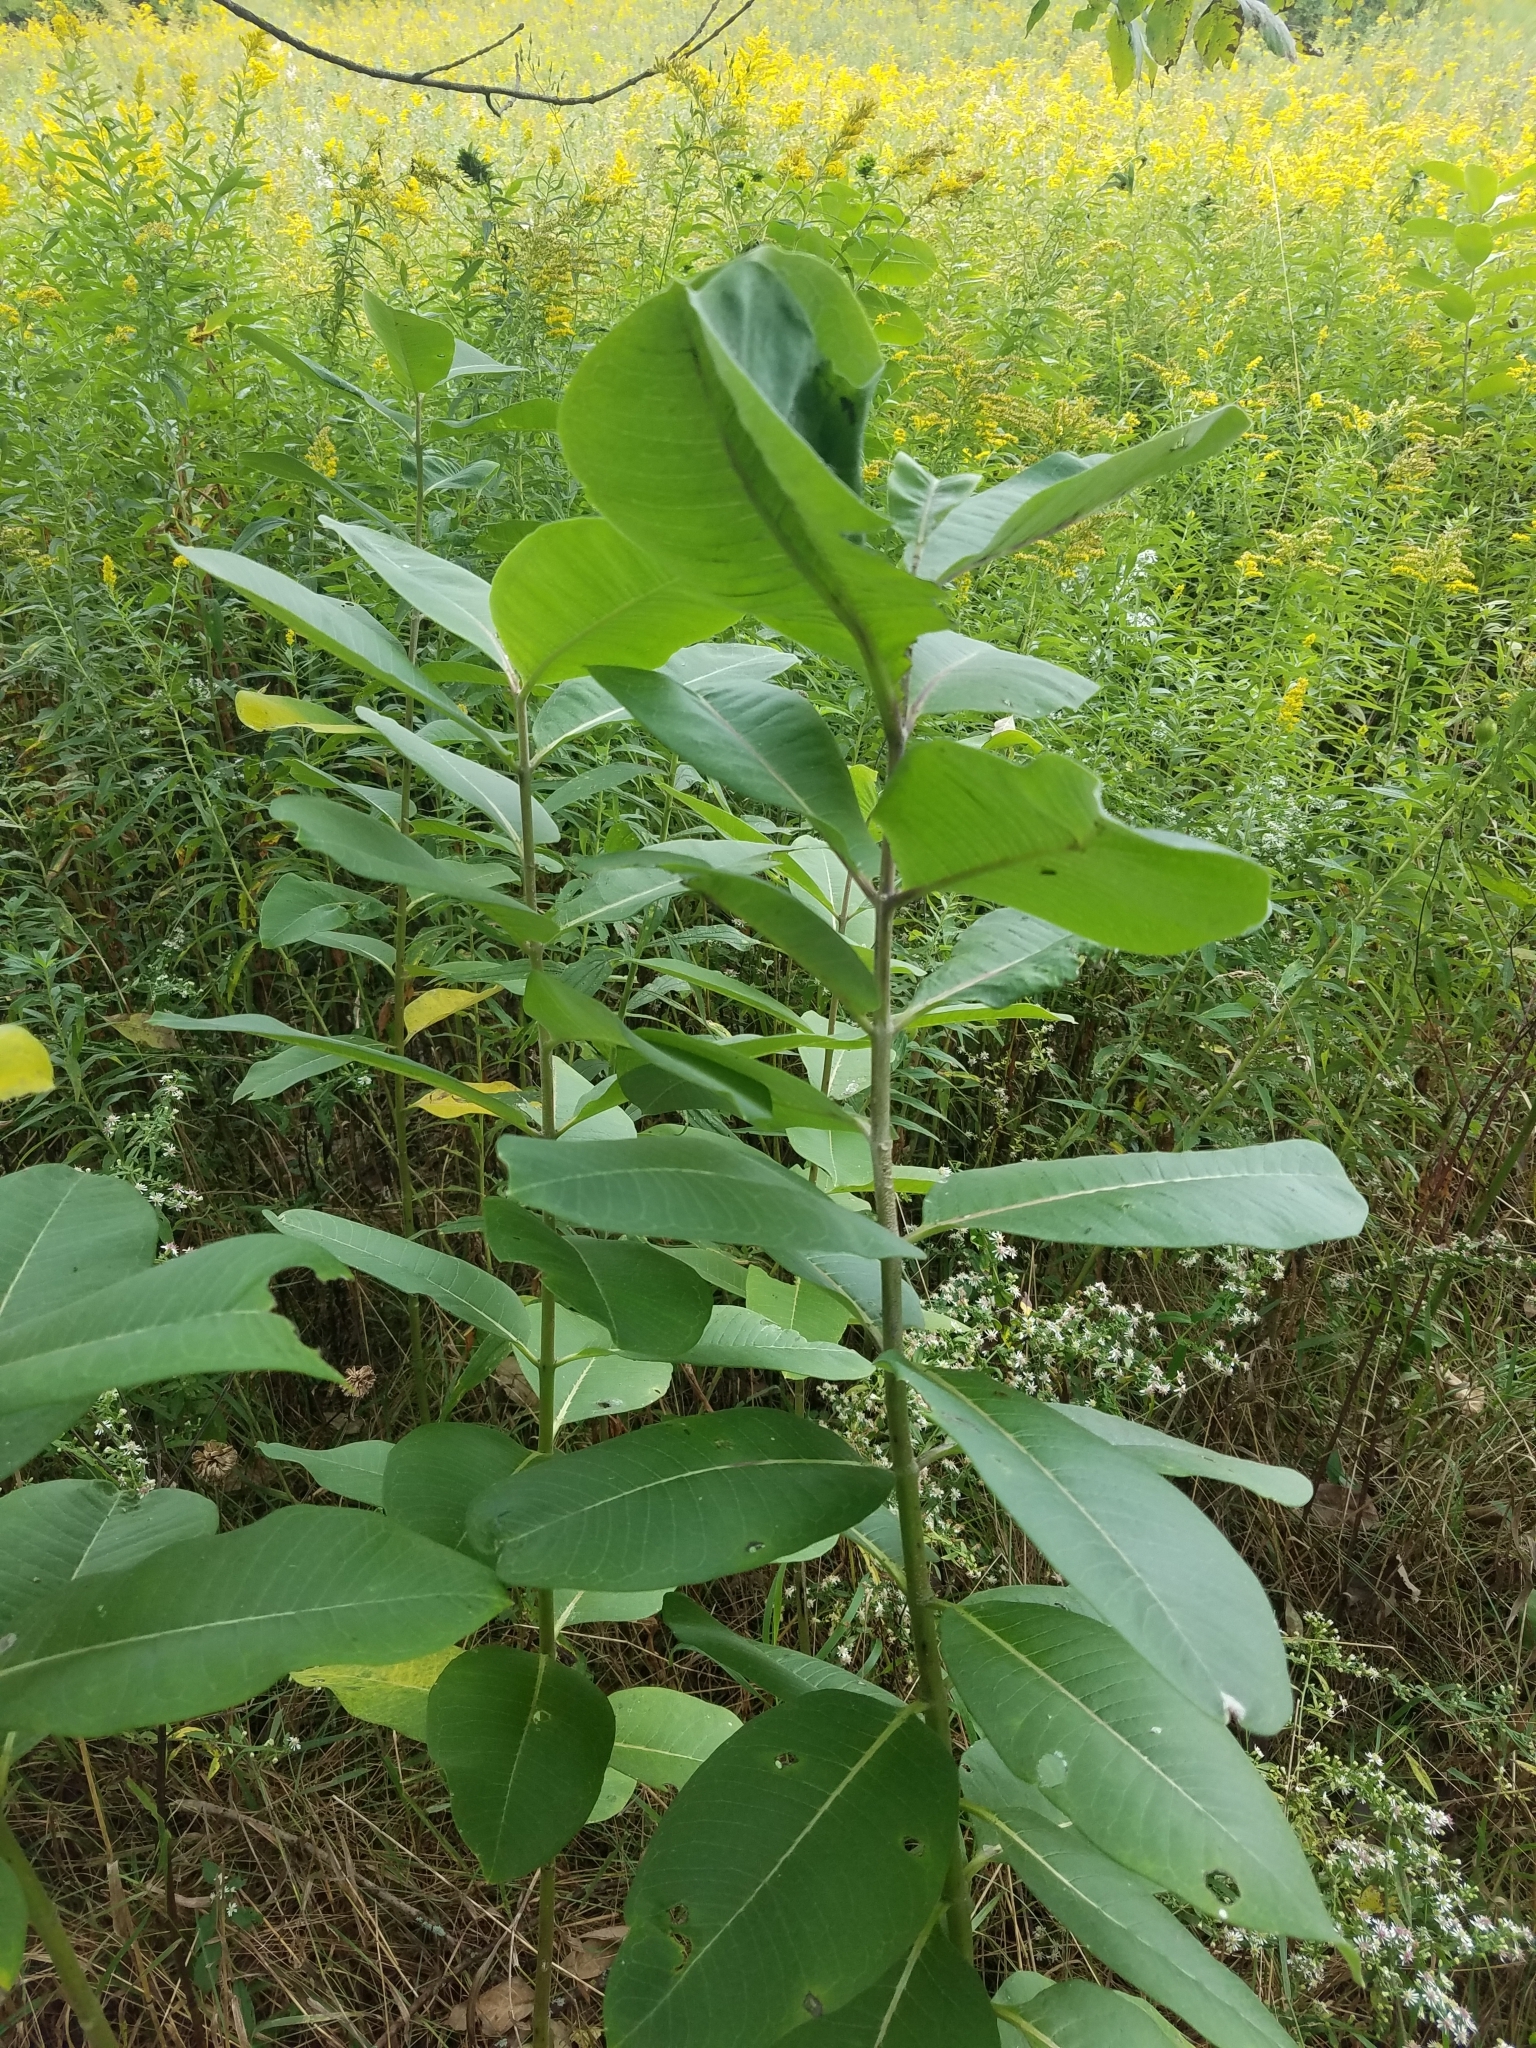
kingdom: Plantae
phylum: Tracheophyta
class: Magnoliopsida
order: Gentianales
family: Apocynaceae
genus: Asclepias
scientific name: Asclepias syriaca
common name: Common milkweed
